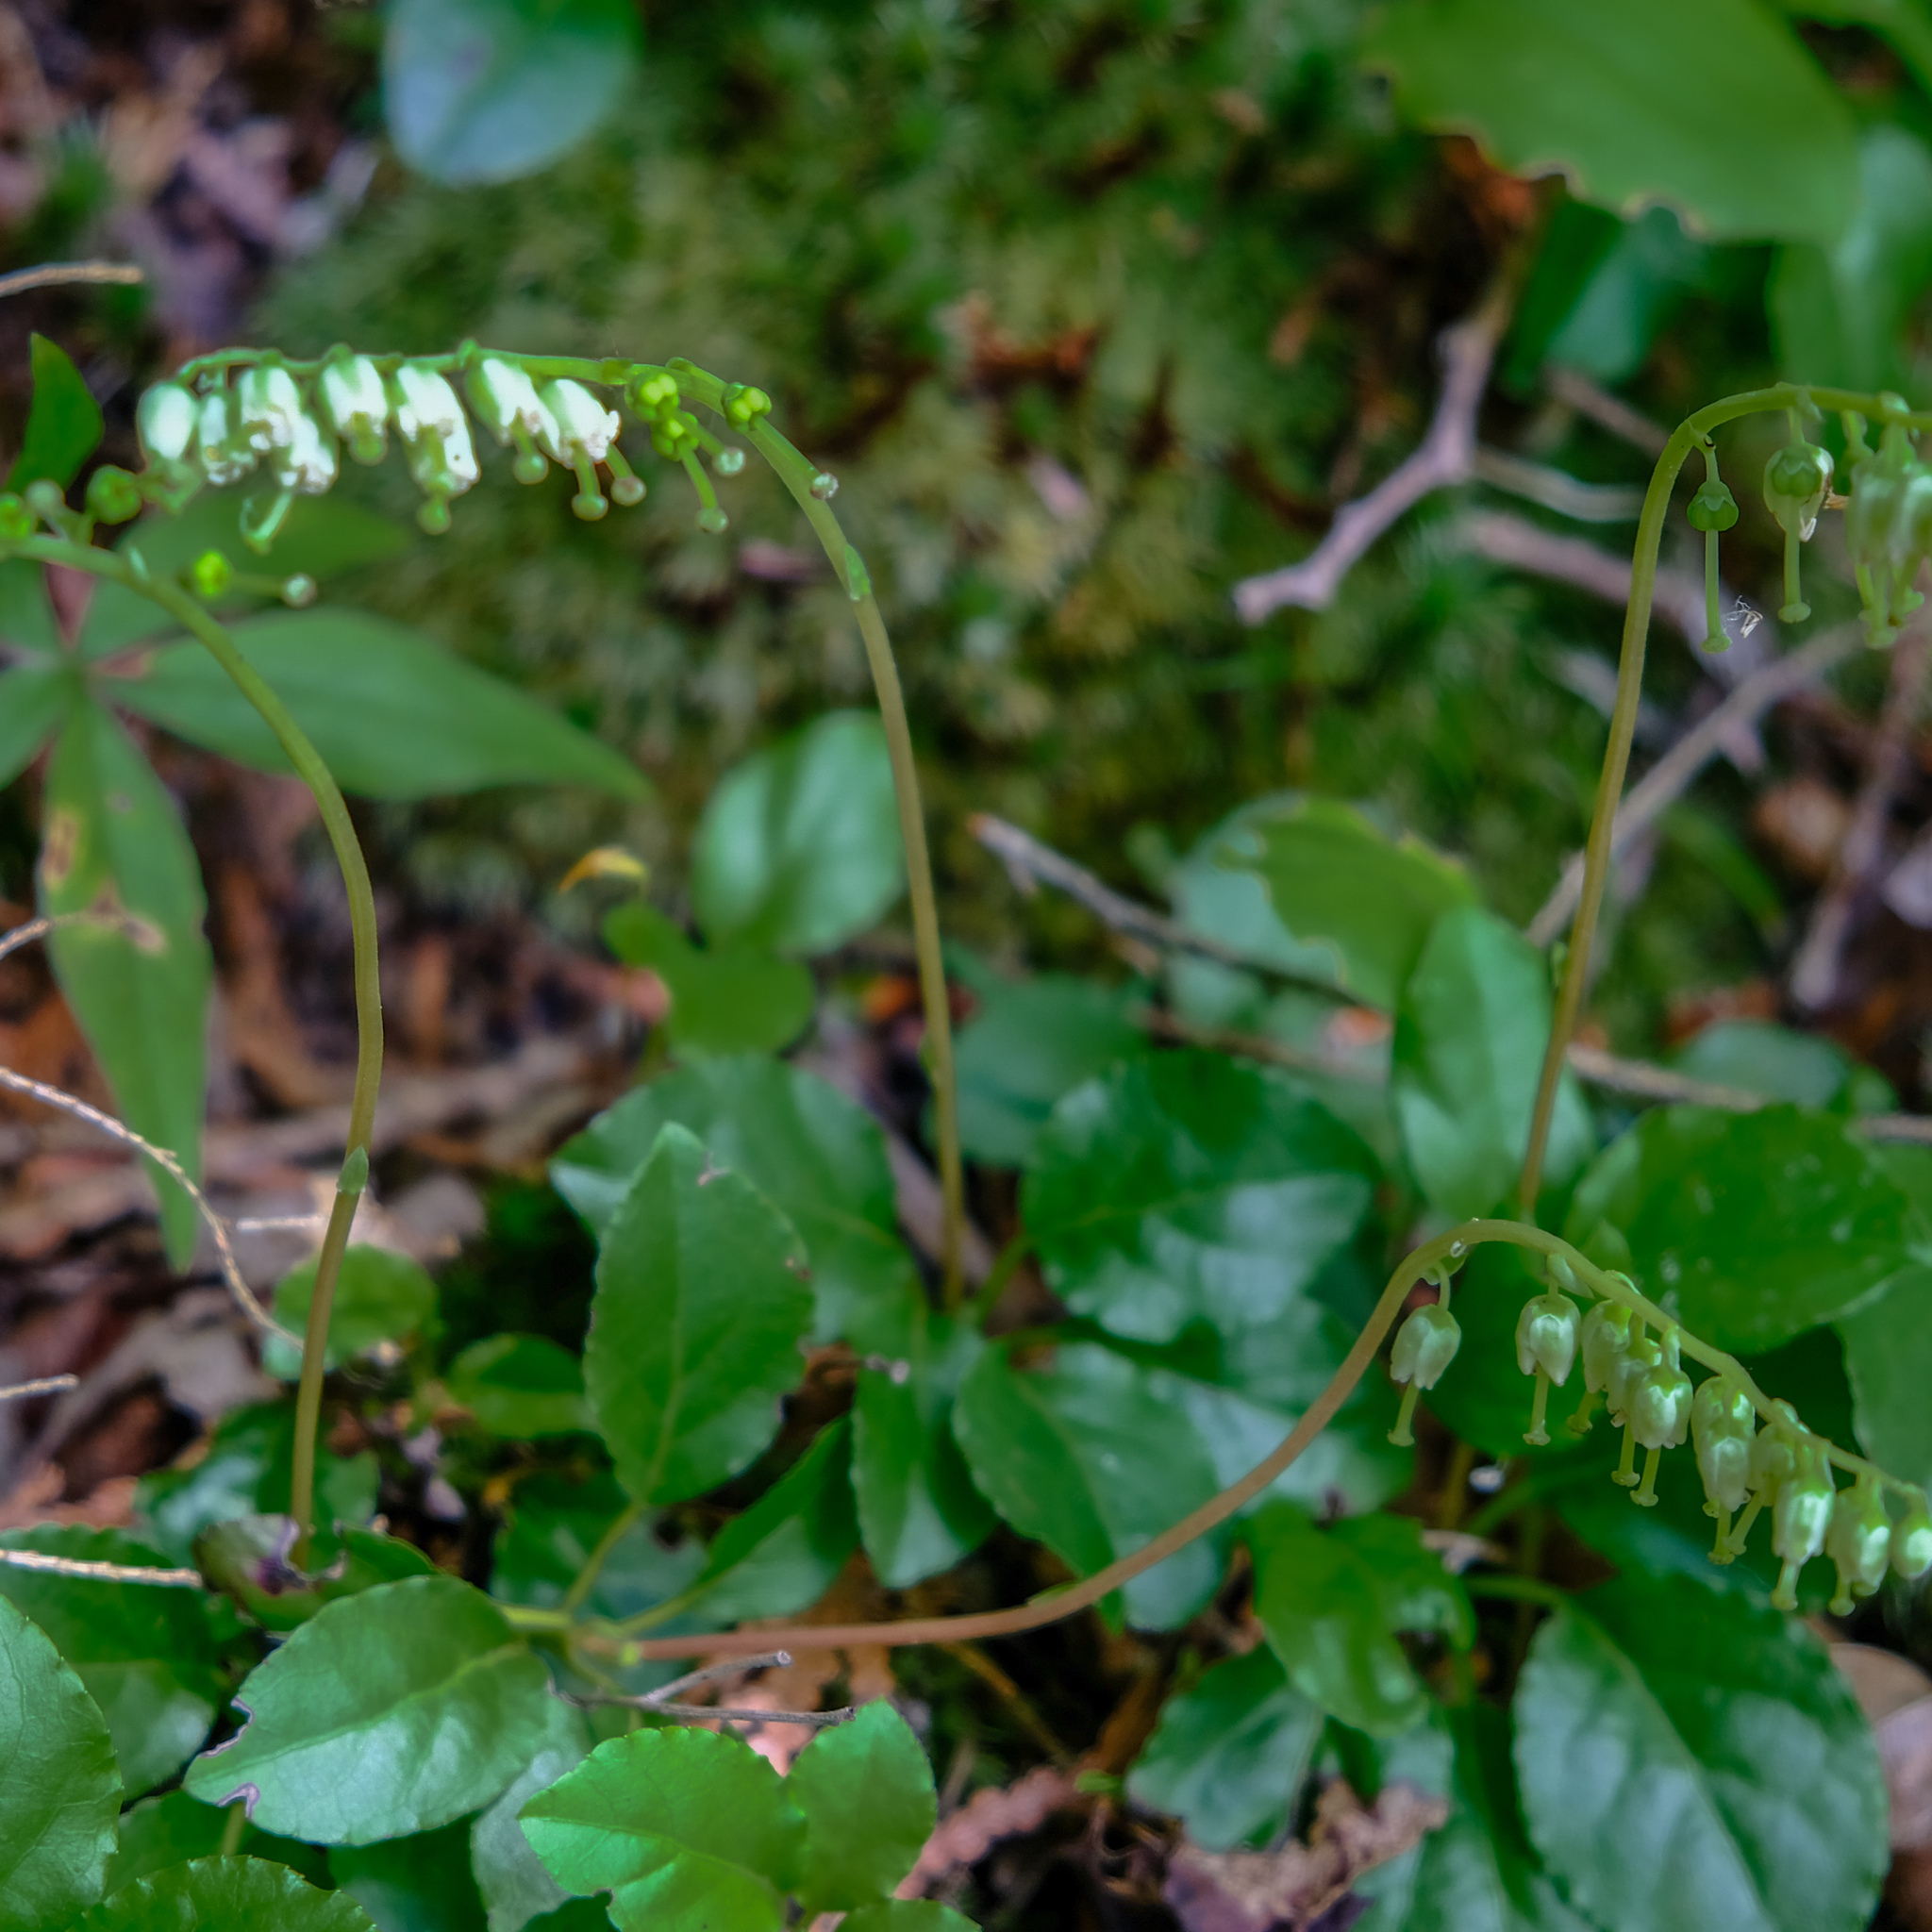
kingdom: Plantae
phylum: Tracheophyta
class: Magnoliopsida
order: Ericales
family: Ericaceae
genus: Orthilia
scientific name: Orthilia secunda
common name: One-sided orthilia
